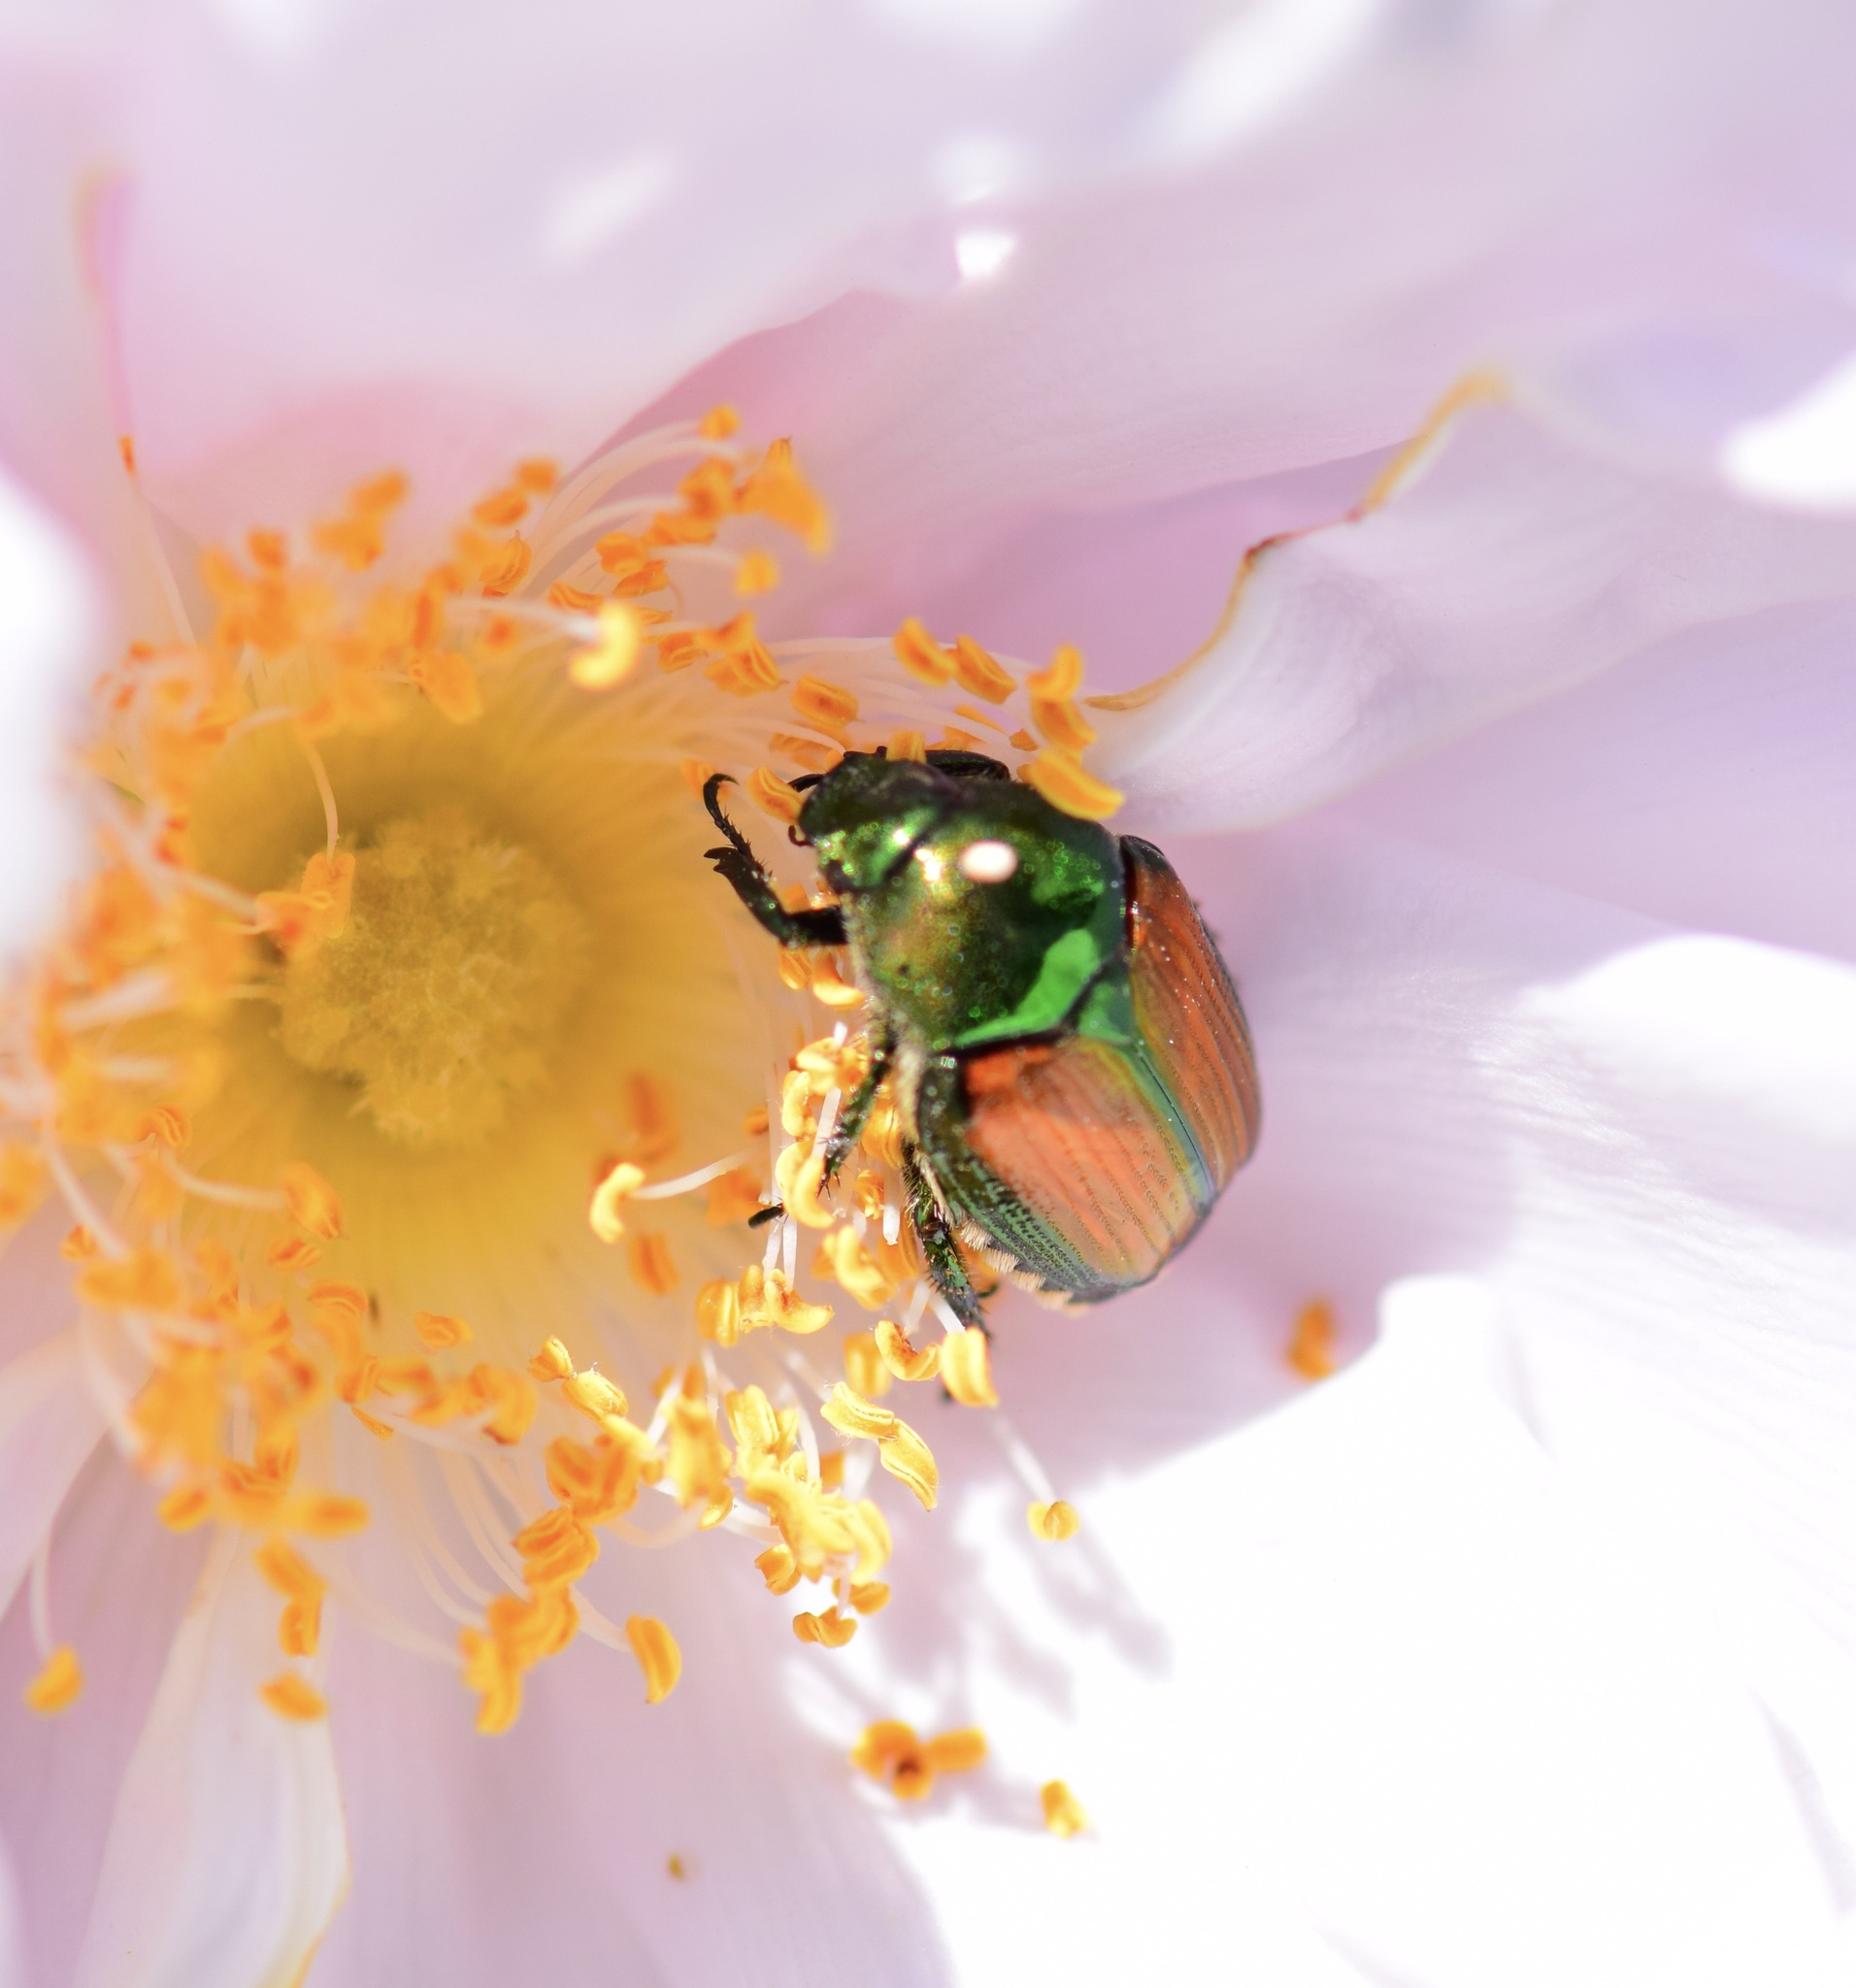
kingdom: Animalia
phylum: Arthropoda
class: Insecta
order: Coleoptera
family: Scarabaeidae
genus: Popillia
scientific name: Popillia japonica
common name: Japanese beetle
